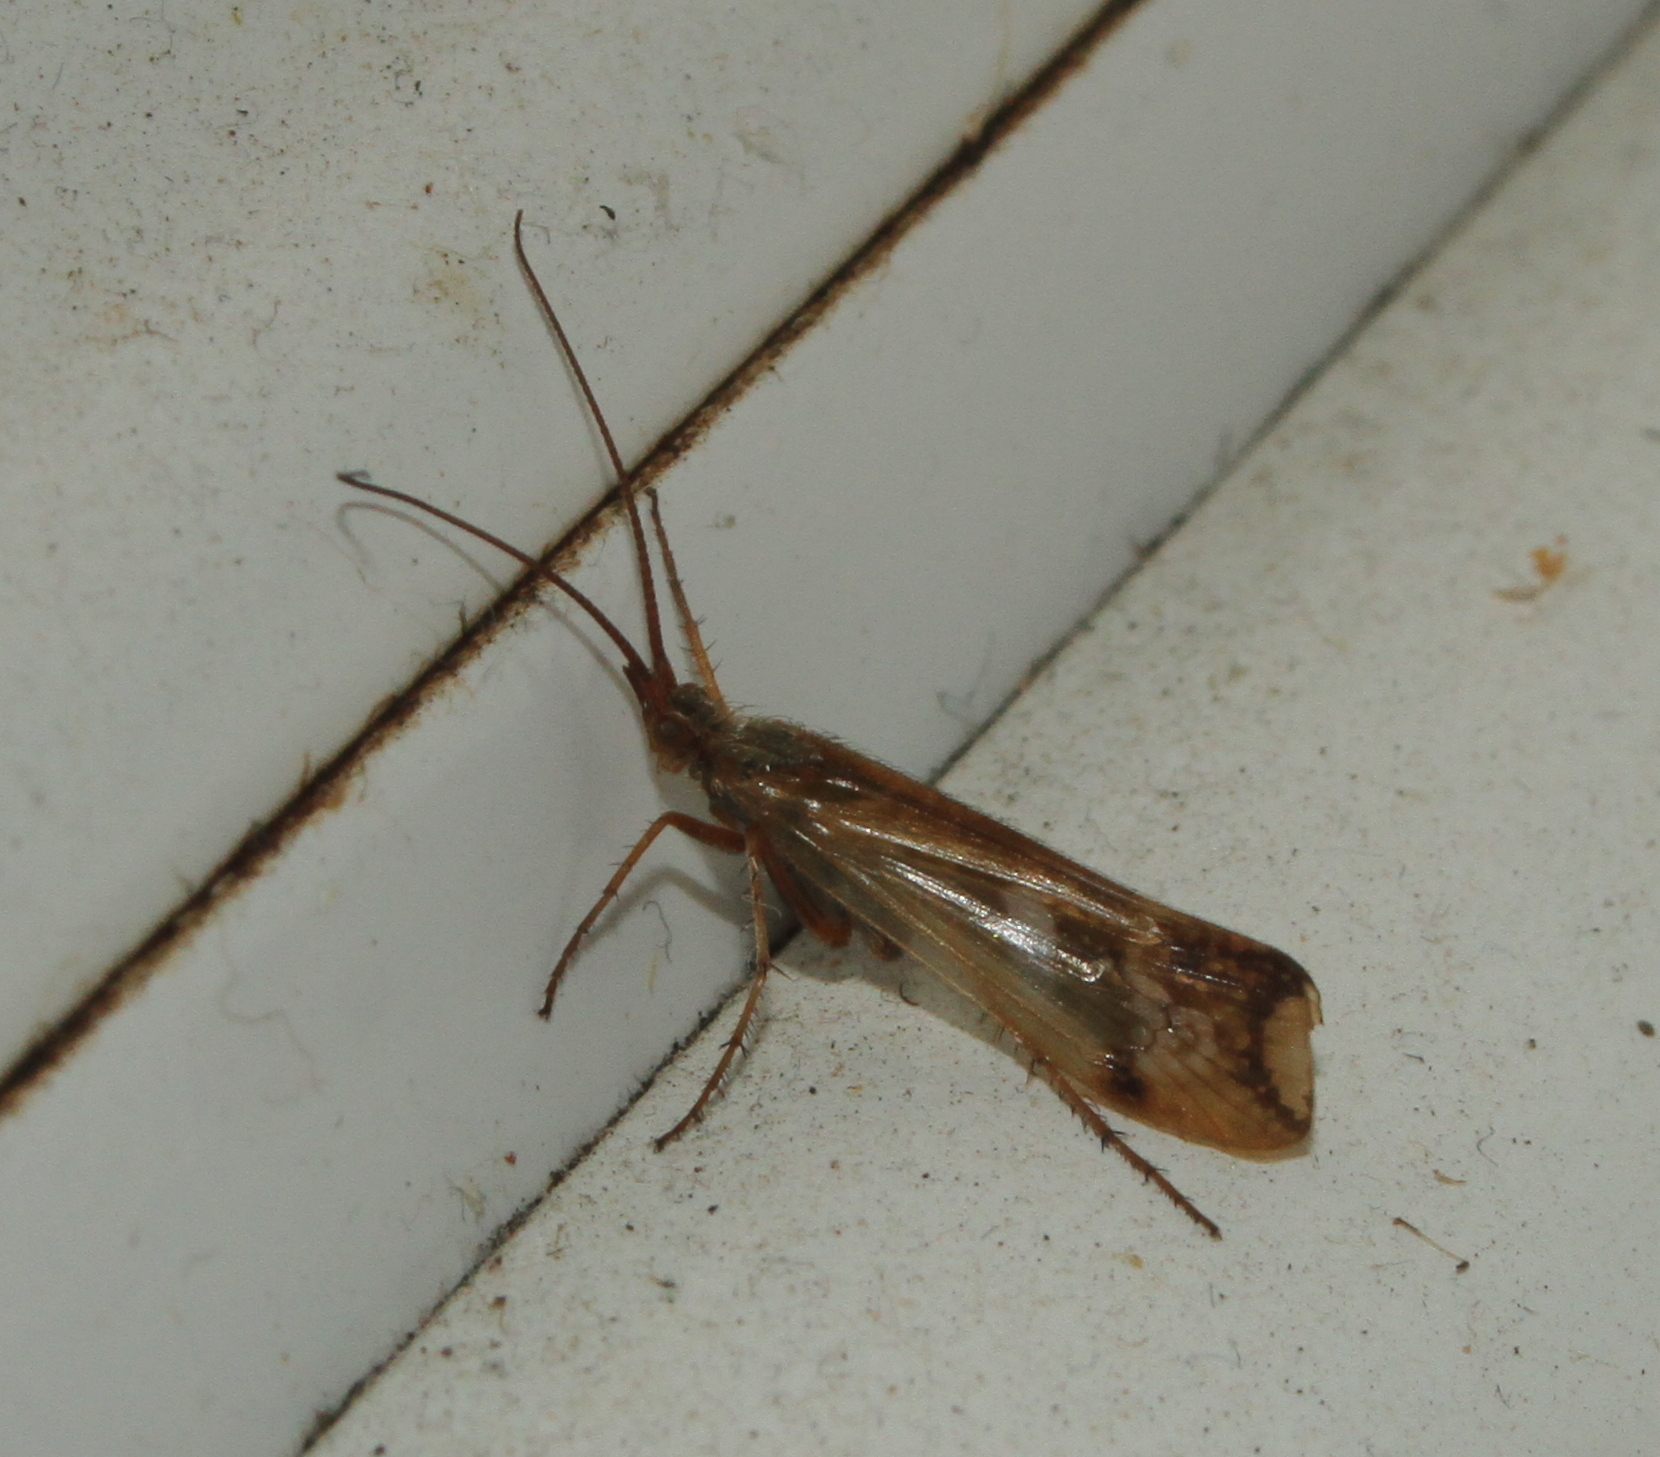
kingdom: Animalia
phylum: Arthropoda
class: Insecta
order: Trichoptera
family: Limnephilidae
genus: Limnephilus
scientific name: Limnephilus lunatus
